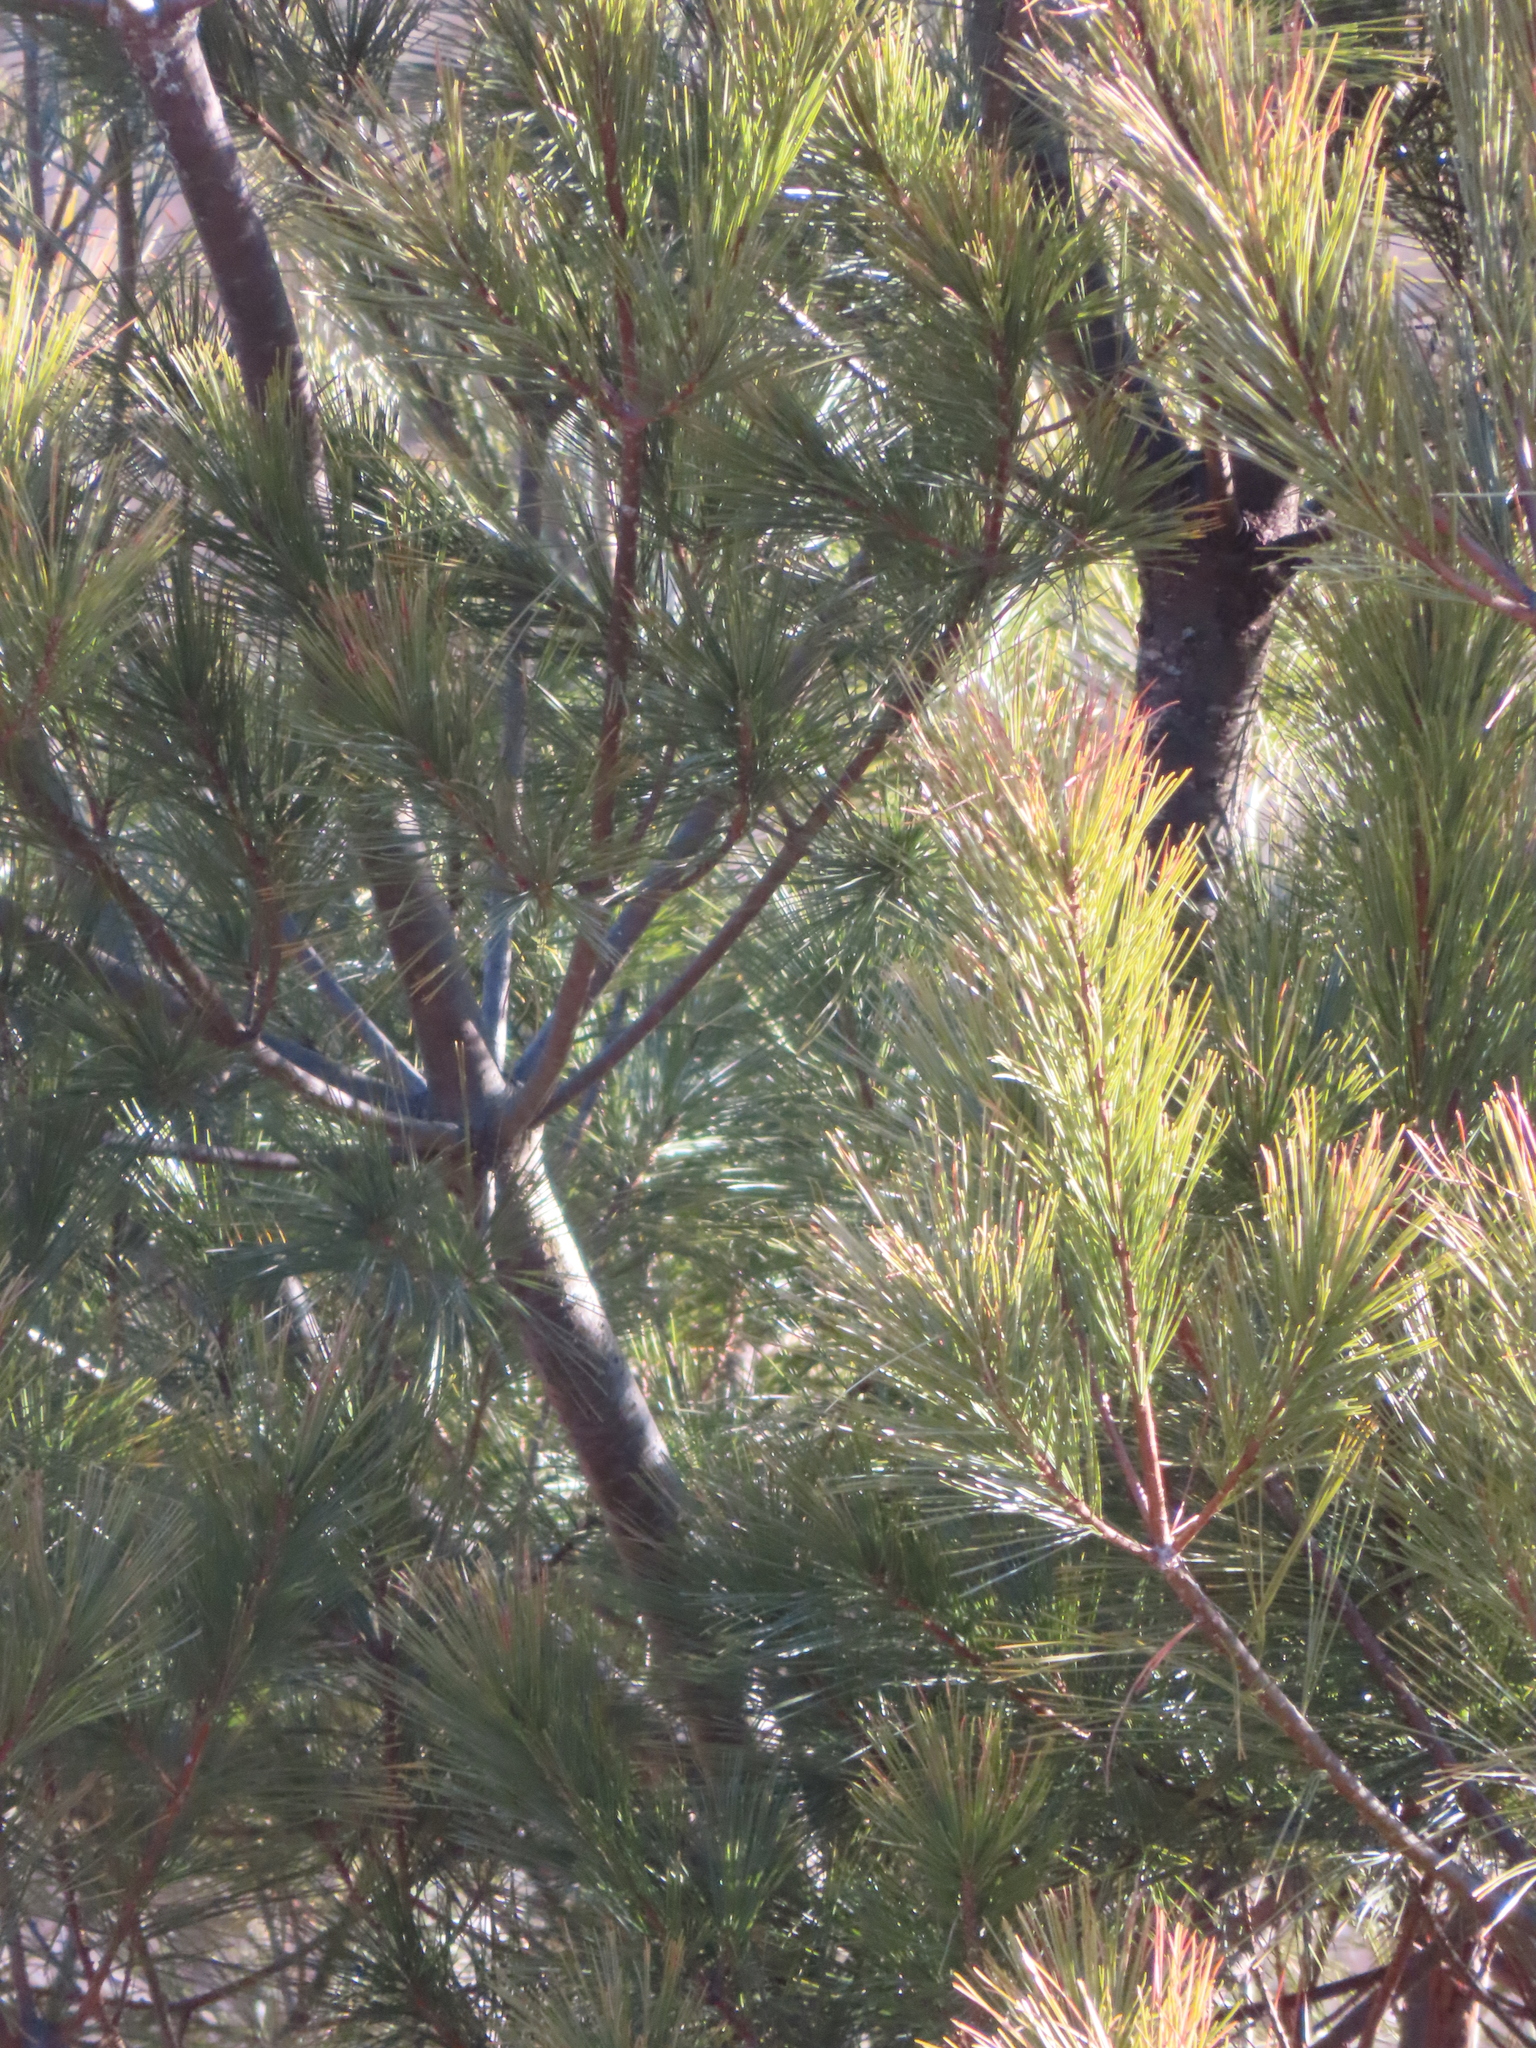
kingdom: Plantae
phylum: Tracheophyta
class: Pinopsida
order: Pinales
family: Pinaceae
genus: Pinus
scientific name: Pinus strobus
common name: Weymouth pine
